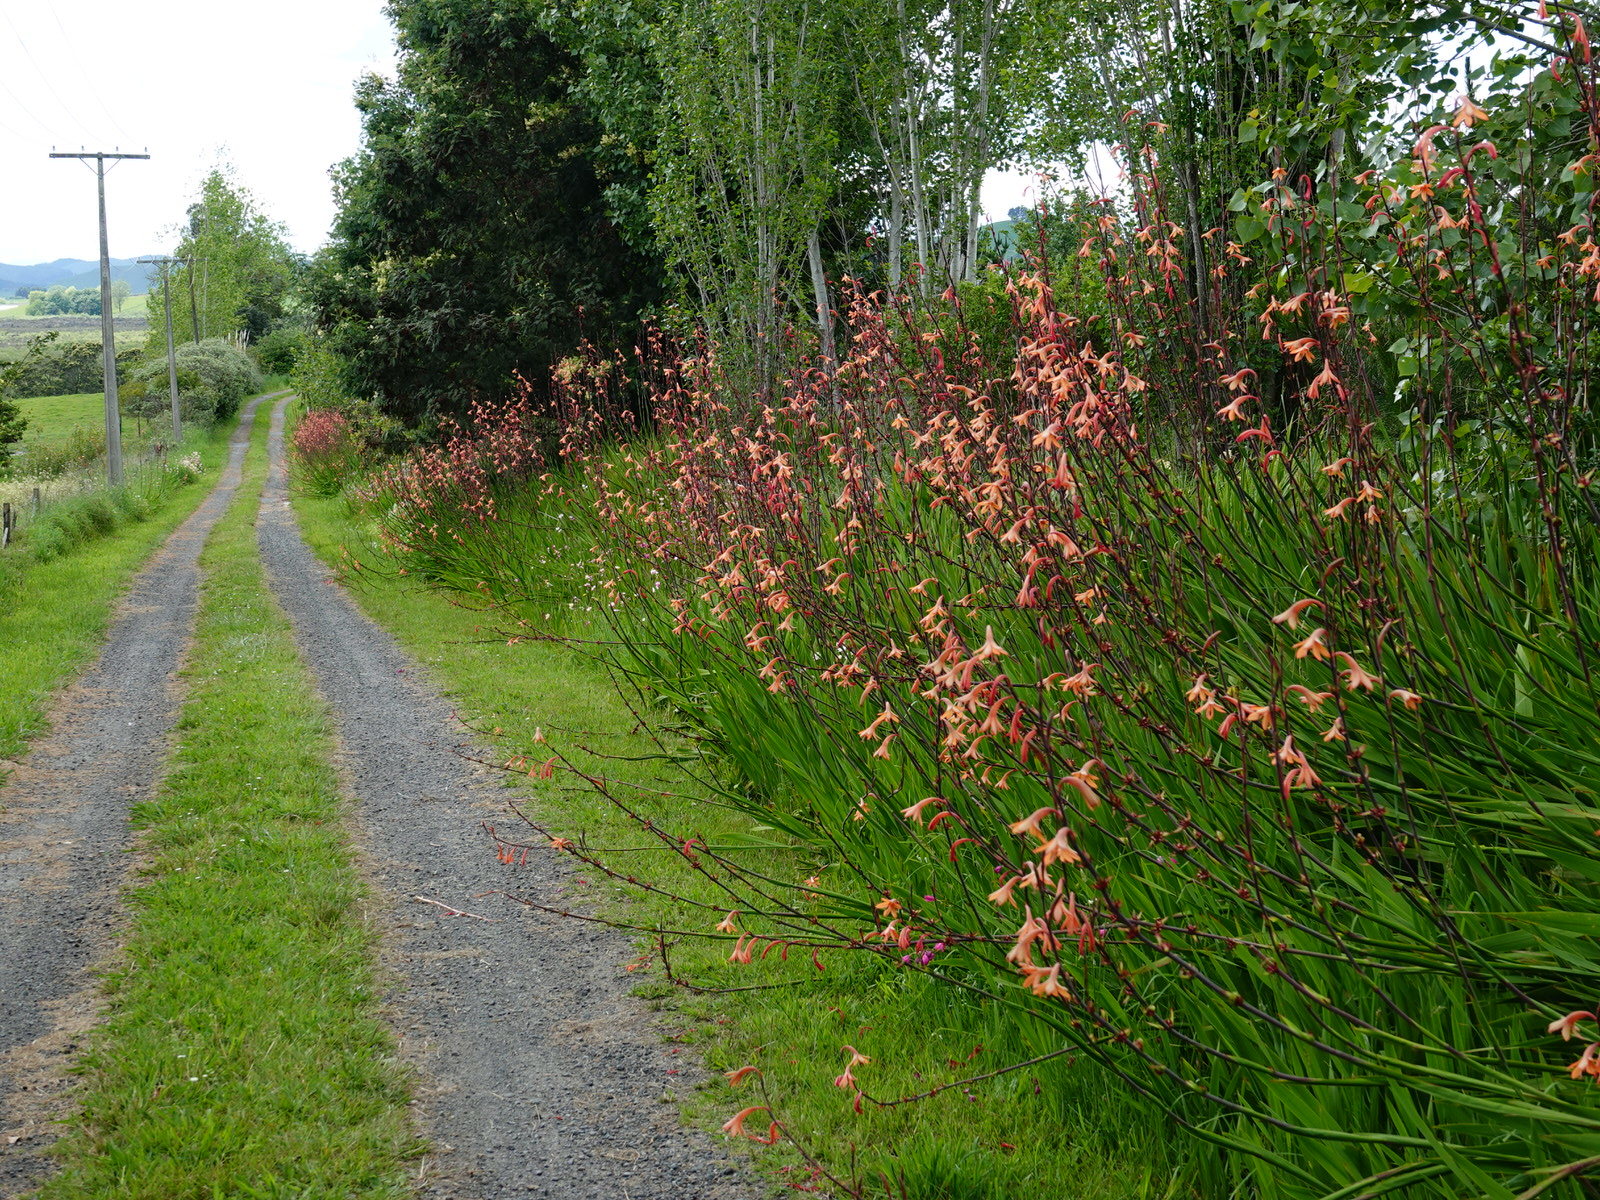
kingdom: Plantae
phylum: Tracheophyta
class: Liliopsida
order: Asparagales
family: Iridaceae
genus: Watsonia
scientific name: Watsonia meriana
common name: Bulbil bugle-lily
